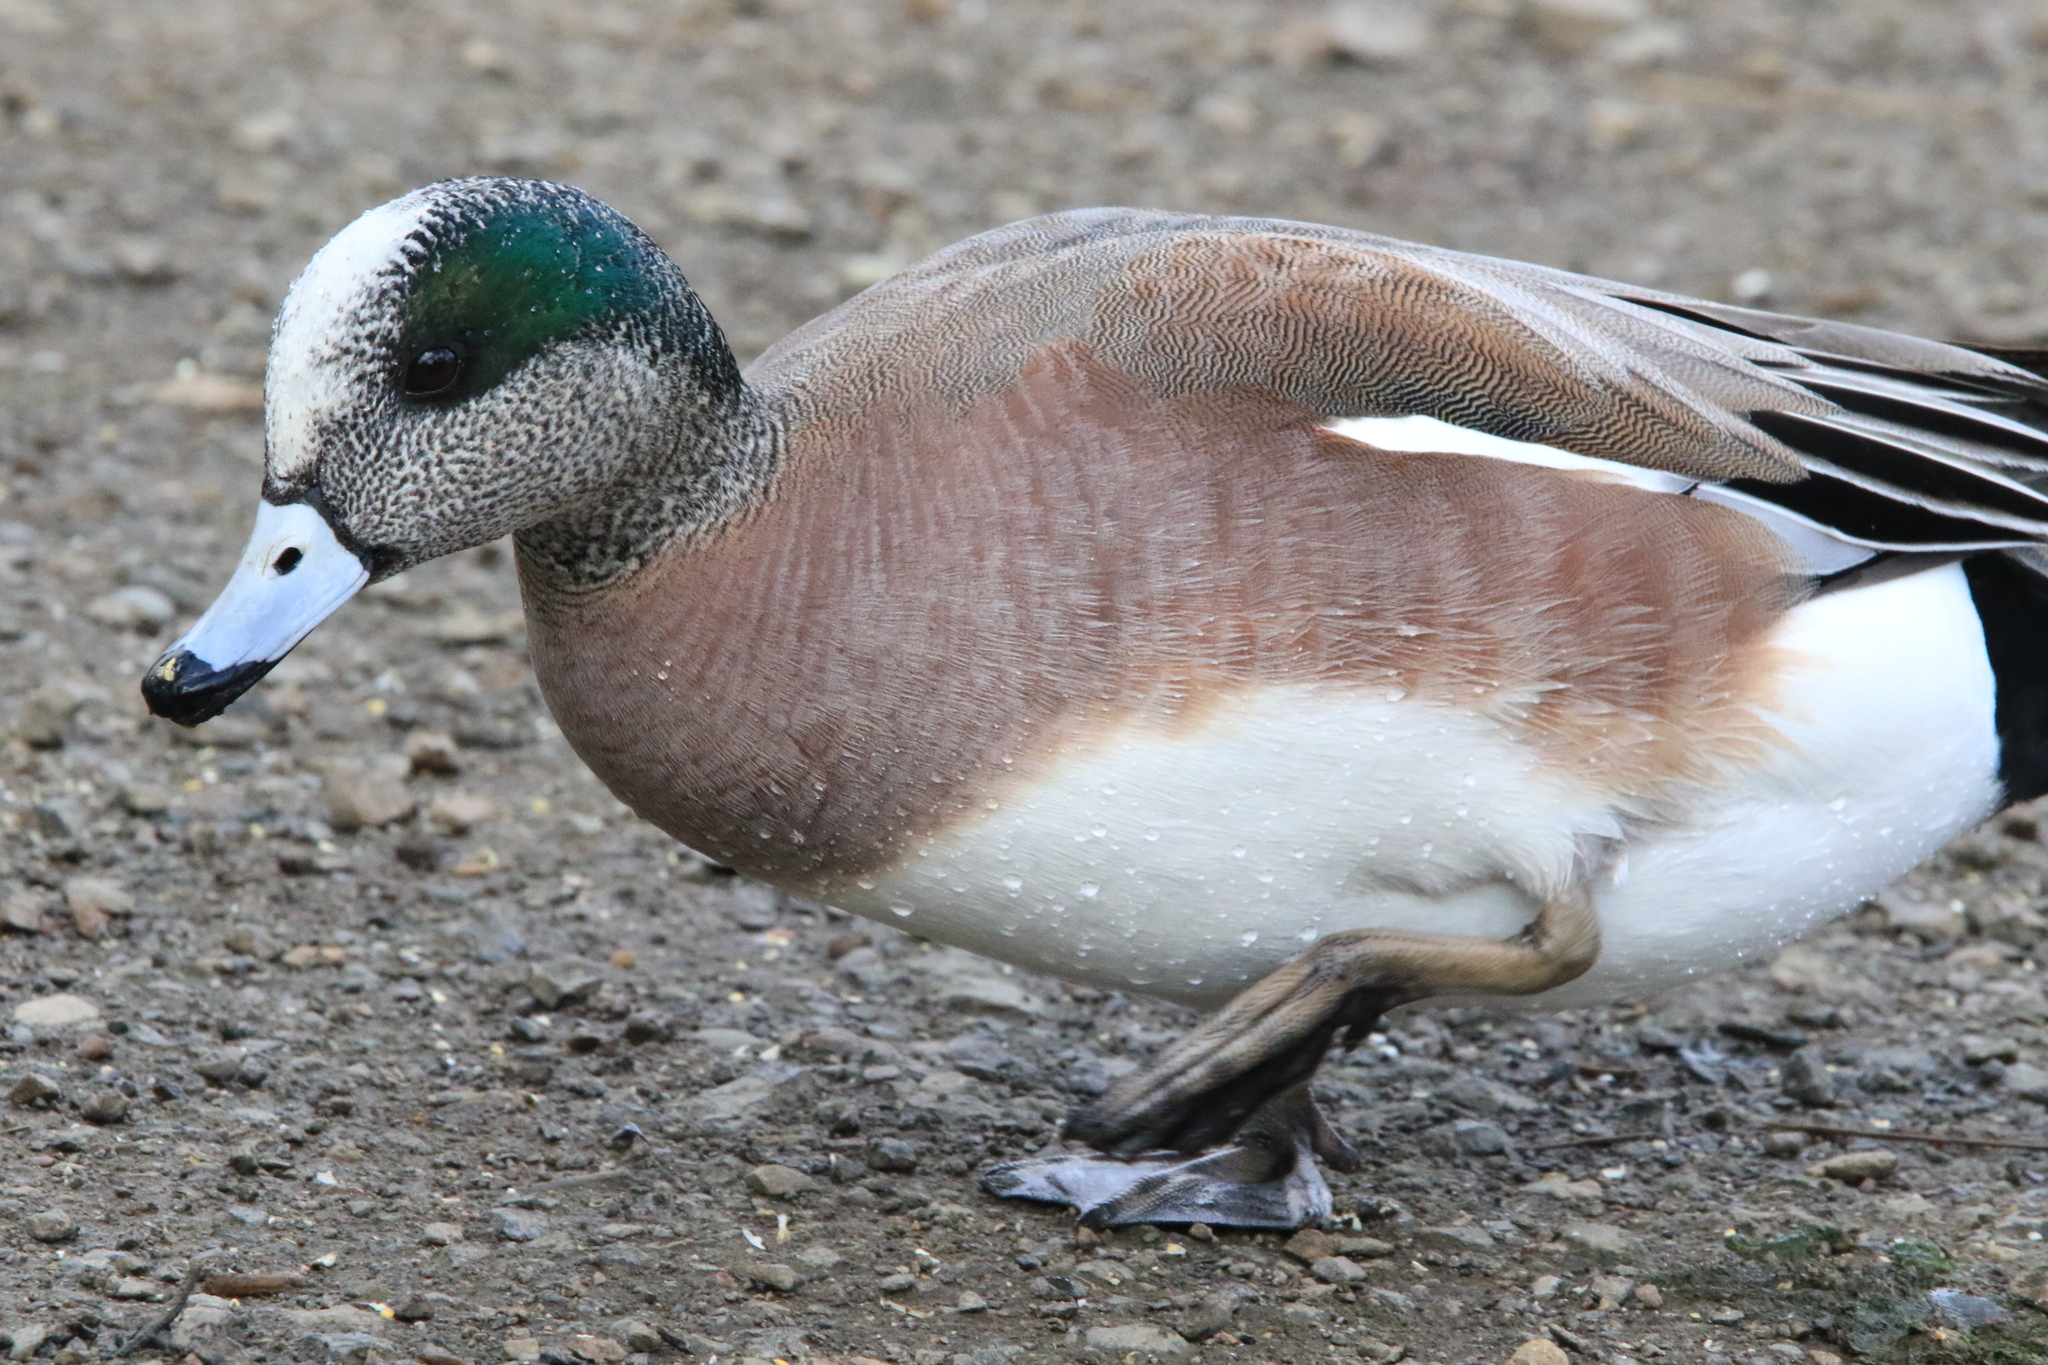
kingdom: Animalia
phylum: Chordata
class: Aves
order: Anseriformes
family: Anatidae
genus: Mareca
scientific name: Mareca americana
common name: American wigeon
